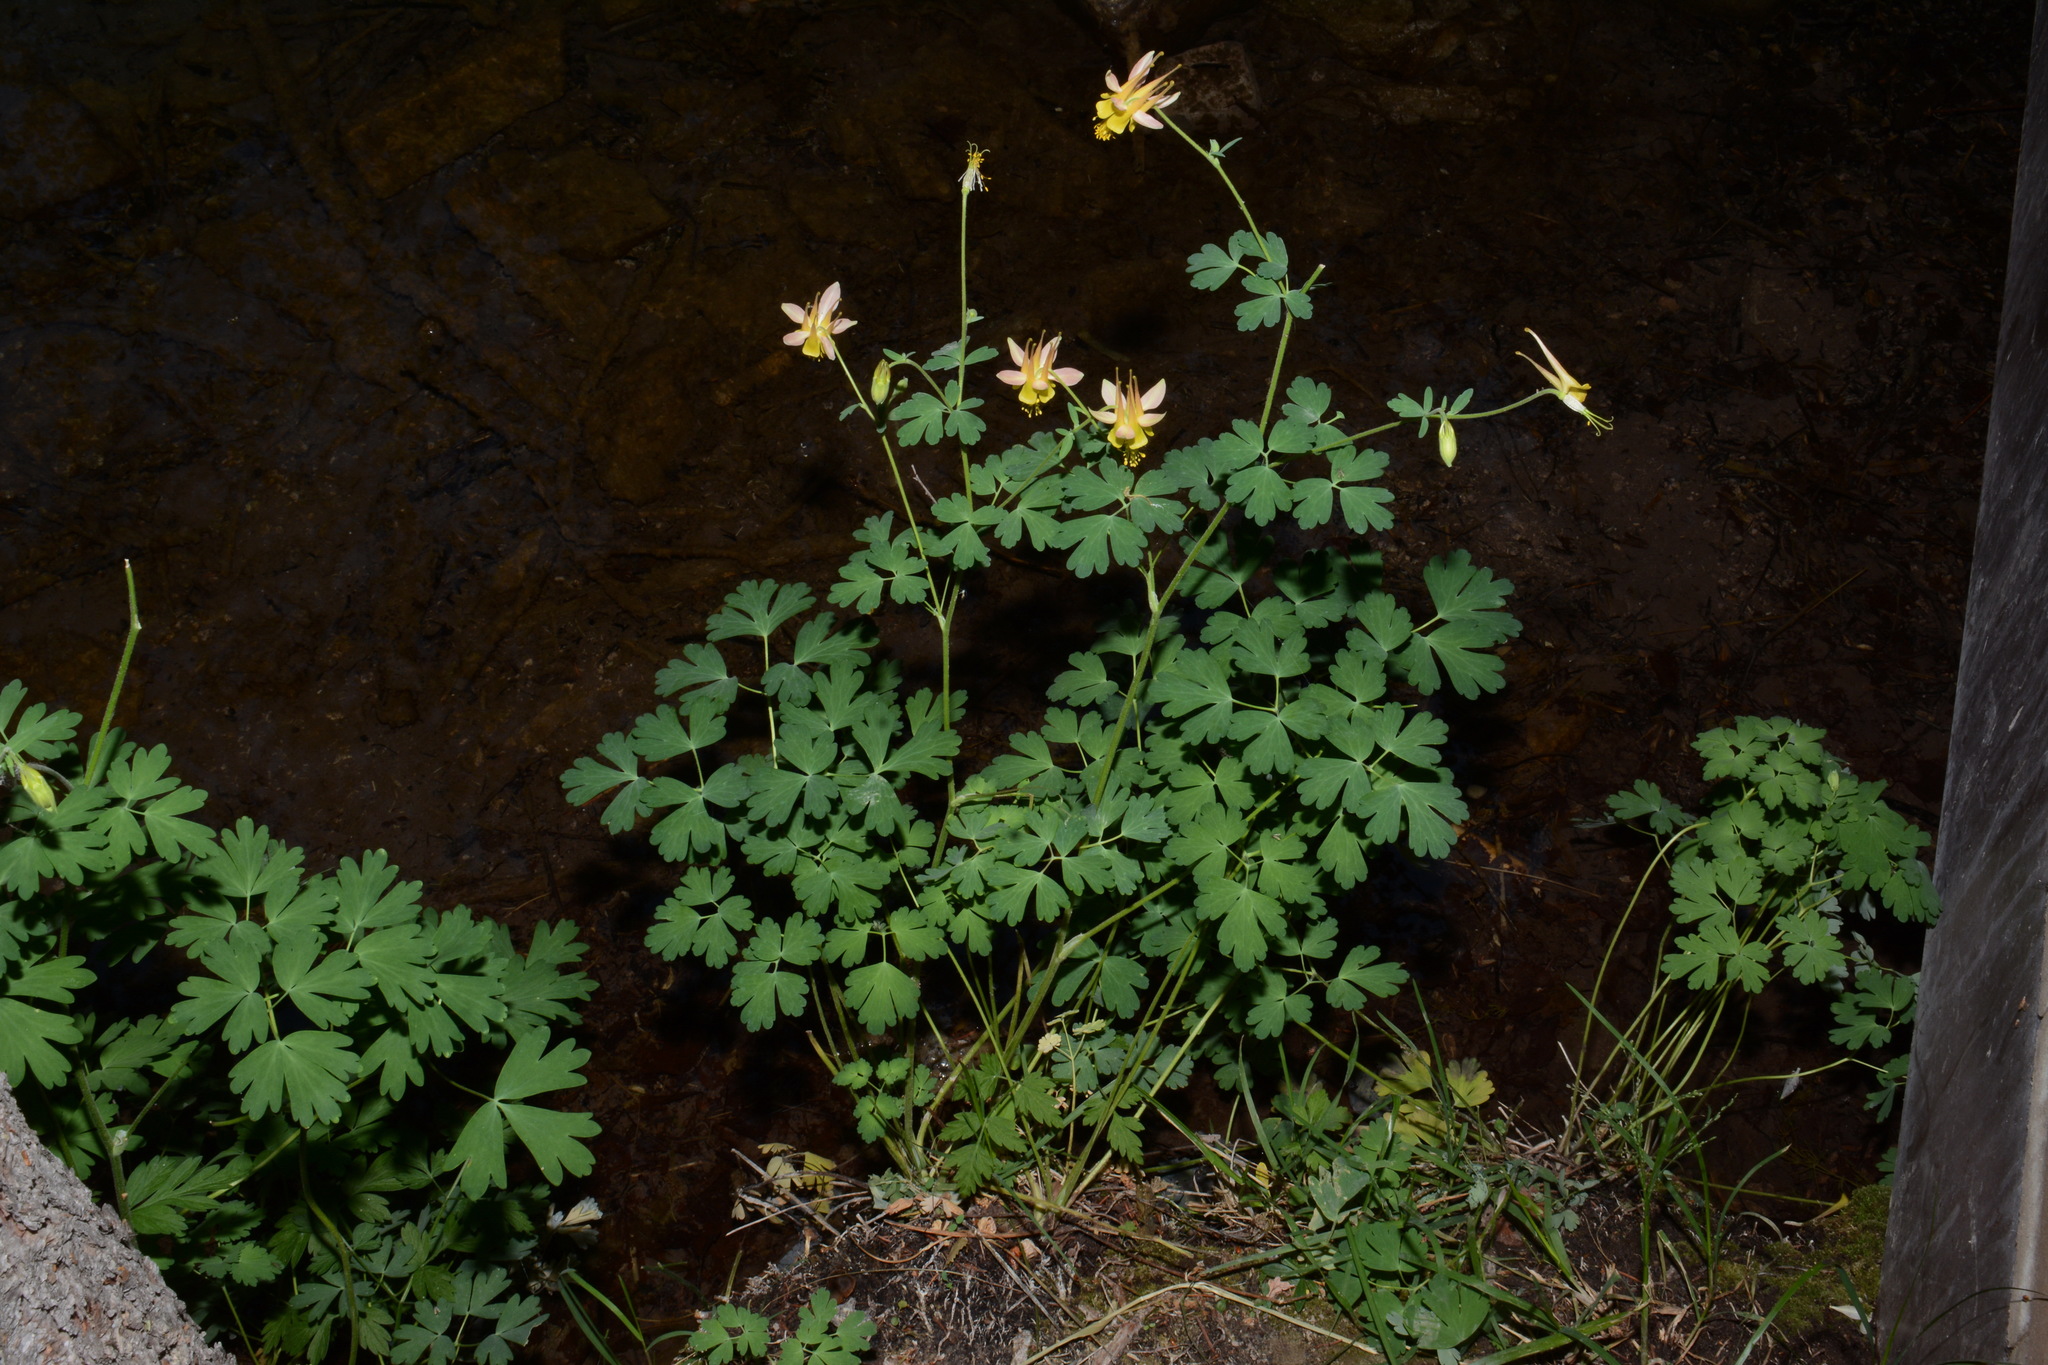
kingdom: Plantae
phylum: Tracheophyta
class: Magnoliopsida
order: Ranunculales
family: Ranunculaceae
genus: Aquilegia
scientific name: Aquilegia barnebyi
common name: Shale columbine
